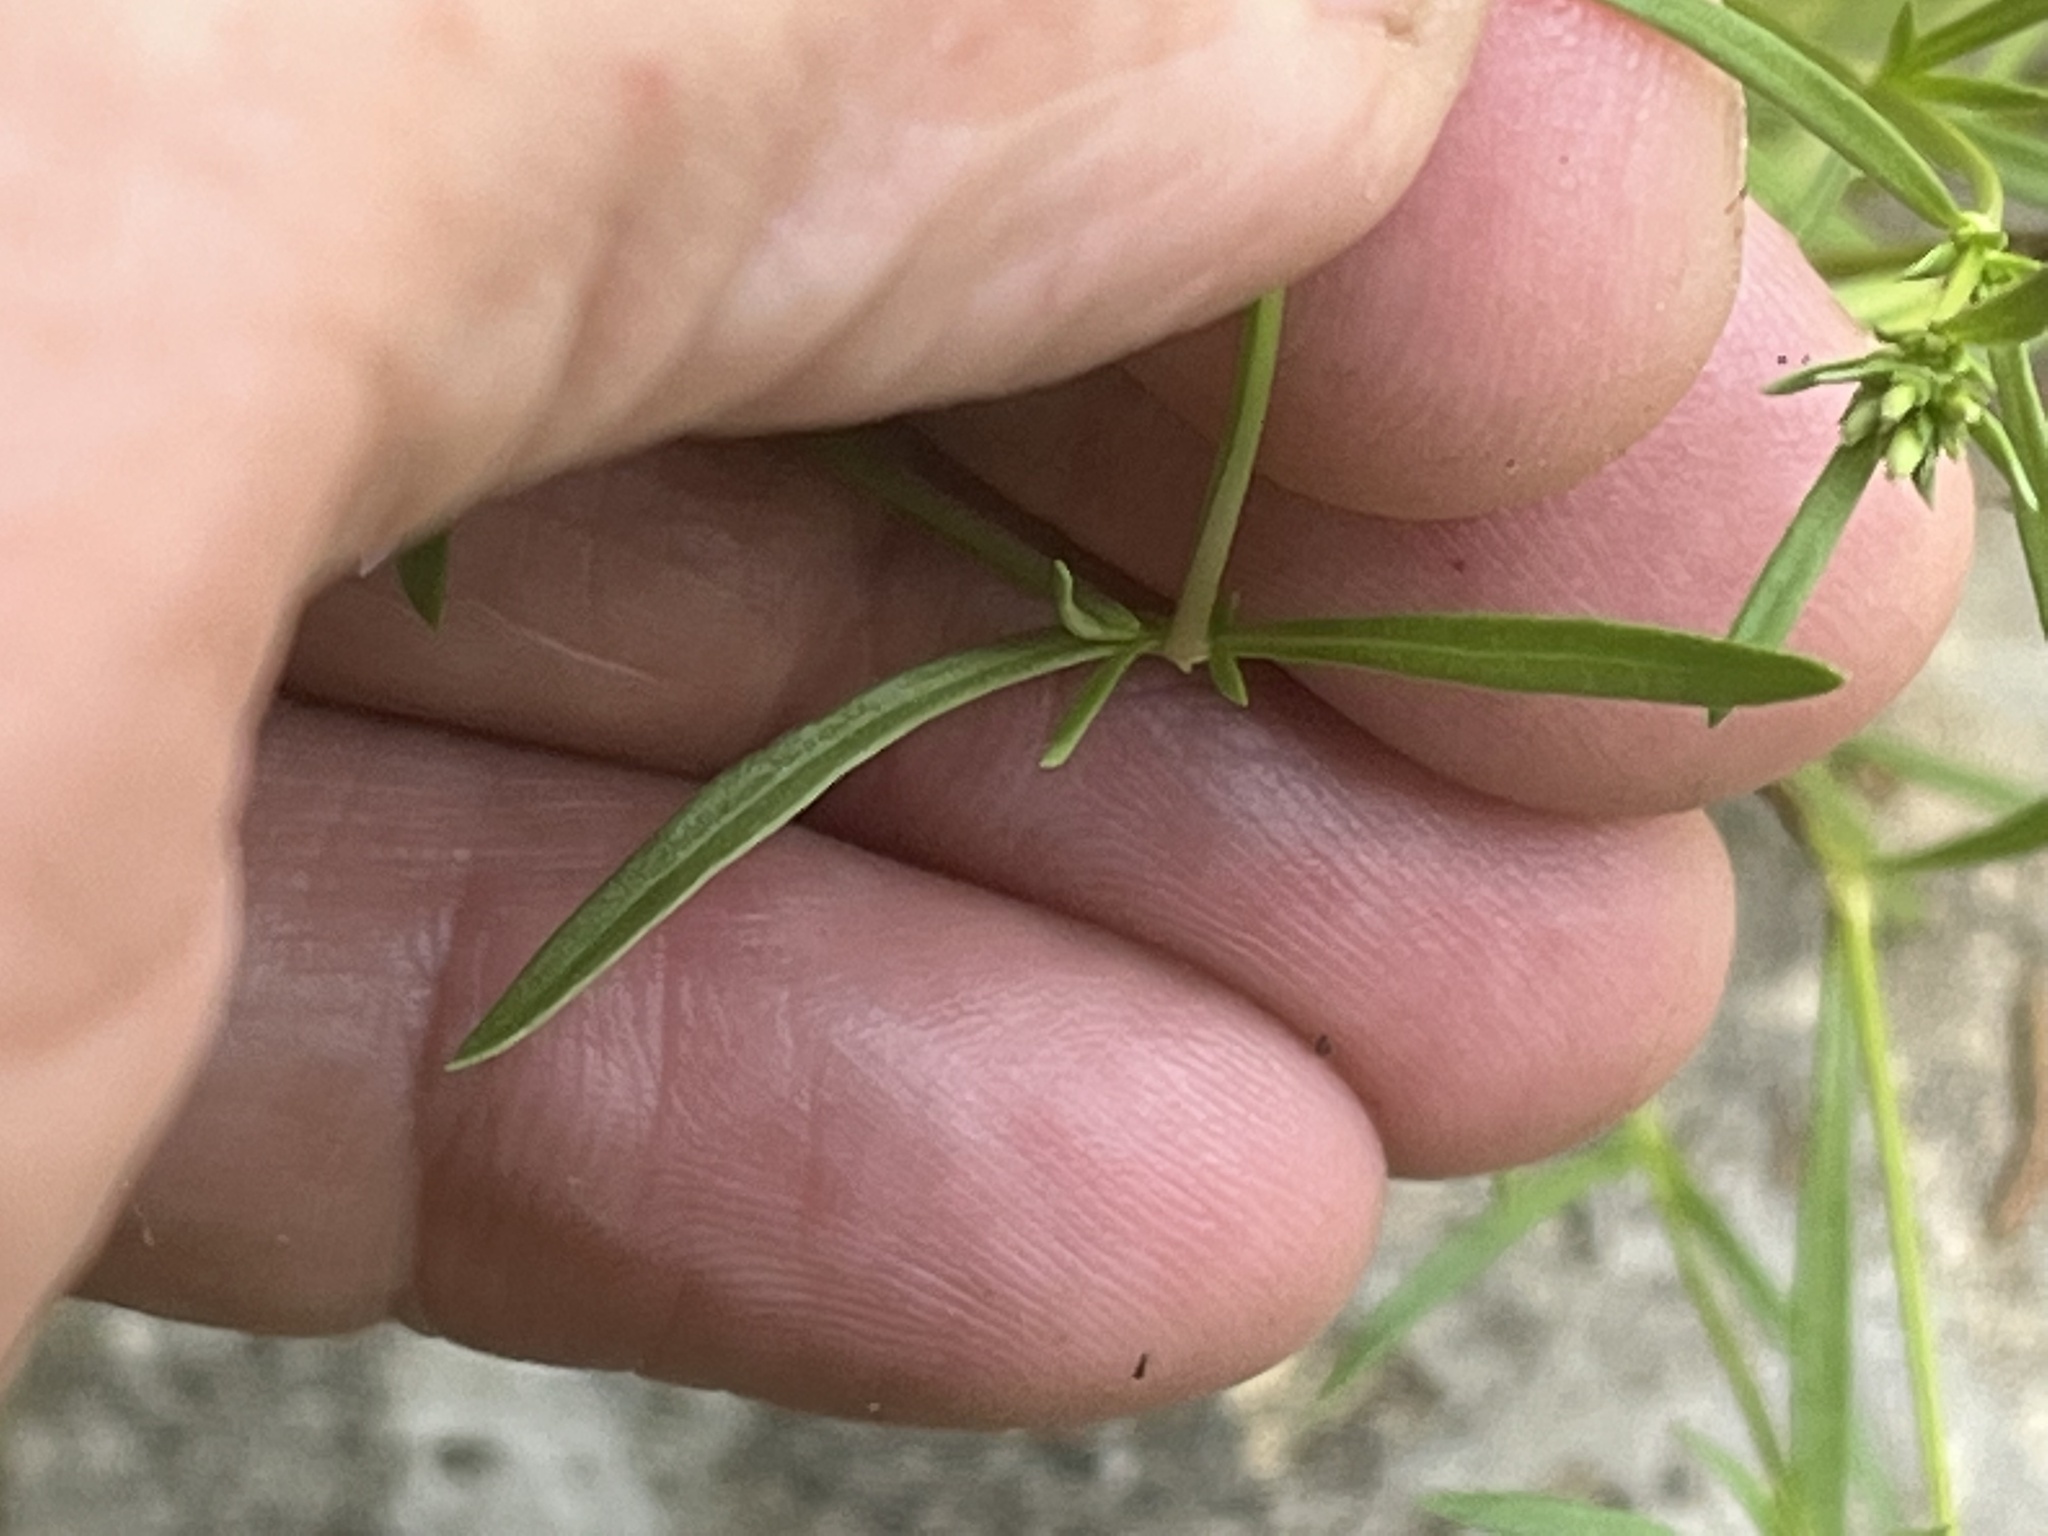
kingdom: Plantae
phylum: Tracheophyta
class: Magnoliopsida
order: Gentianales
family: Rubiaceae
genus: Stenaria
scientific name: Stenaria nigricans
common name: Diamondflowers
